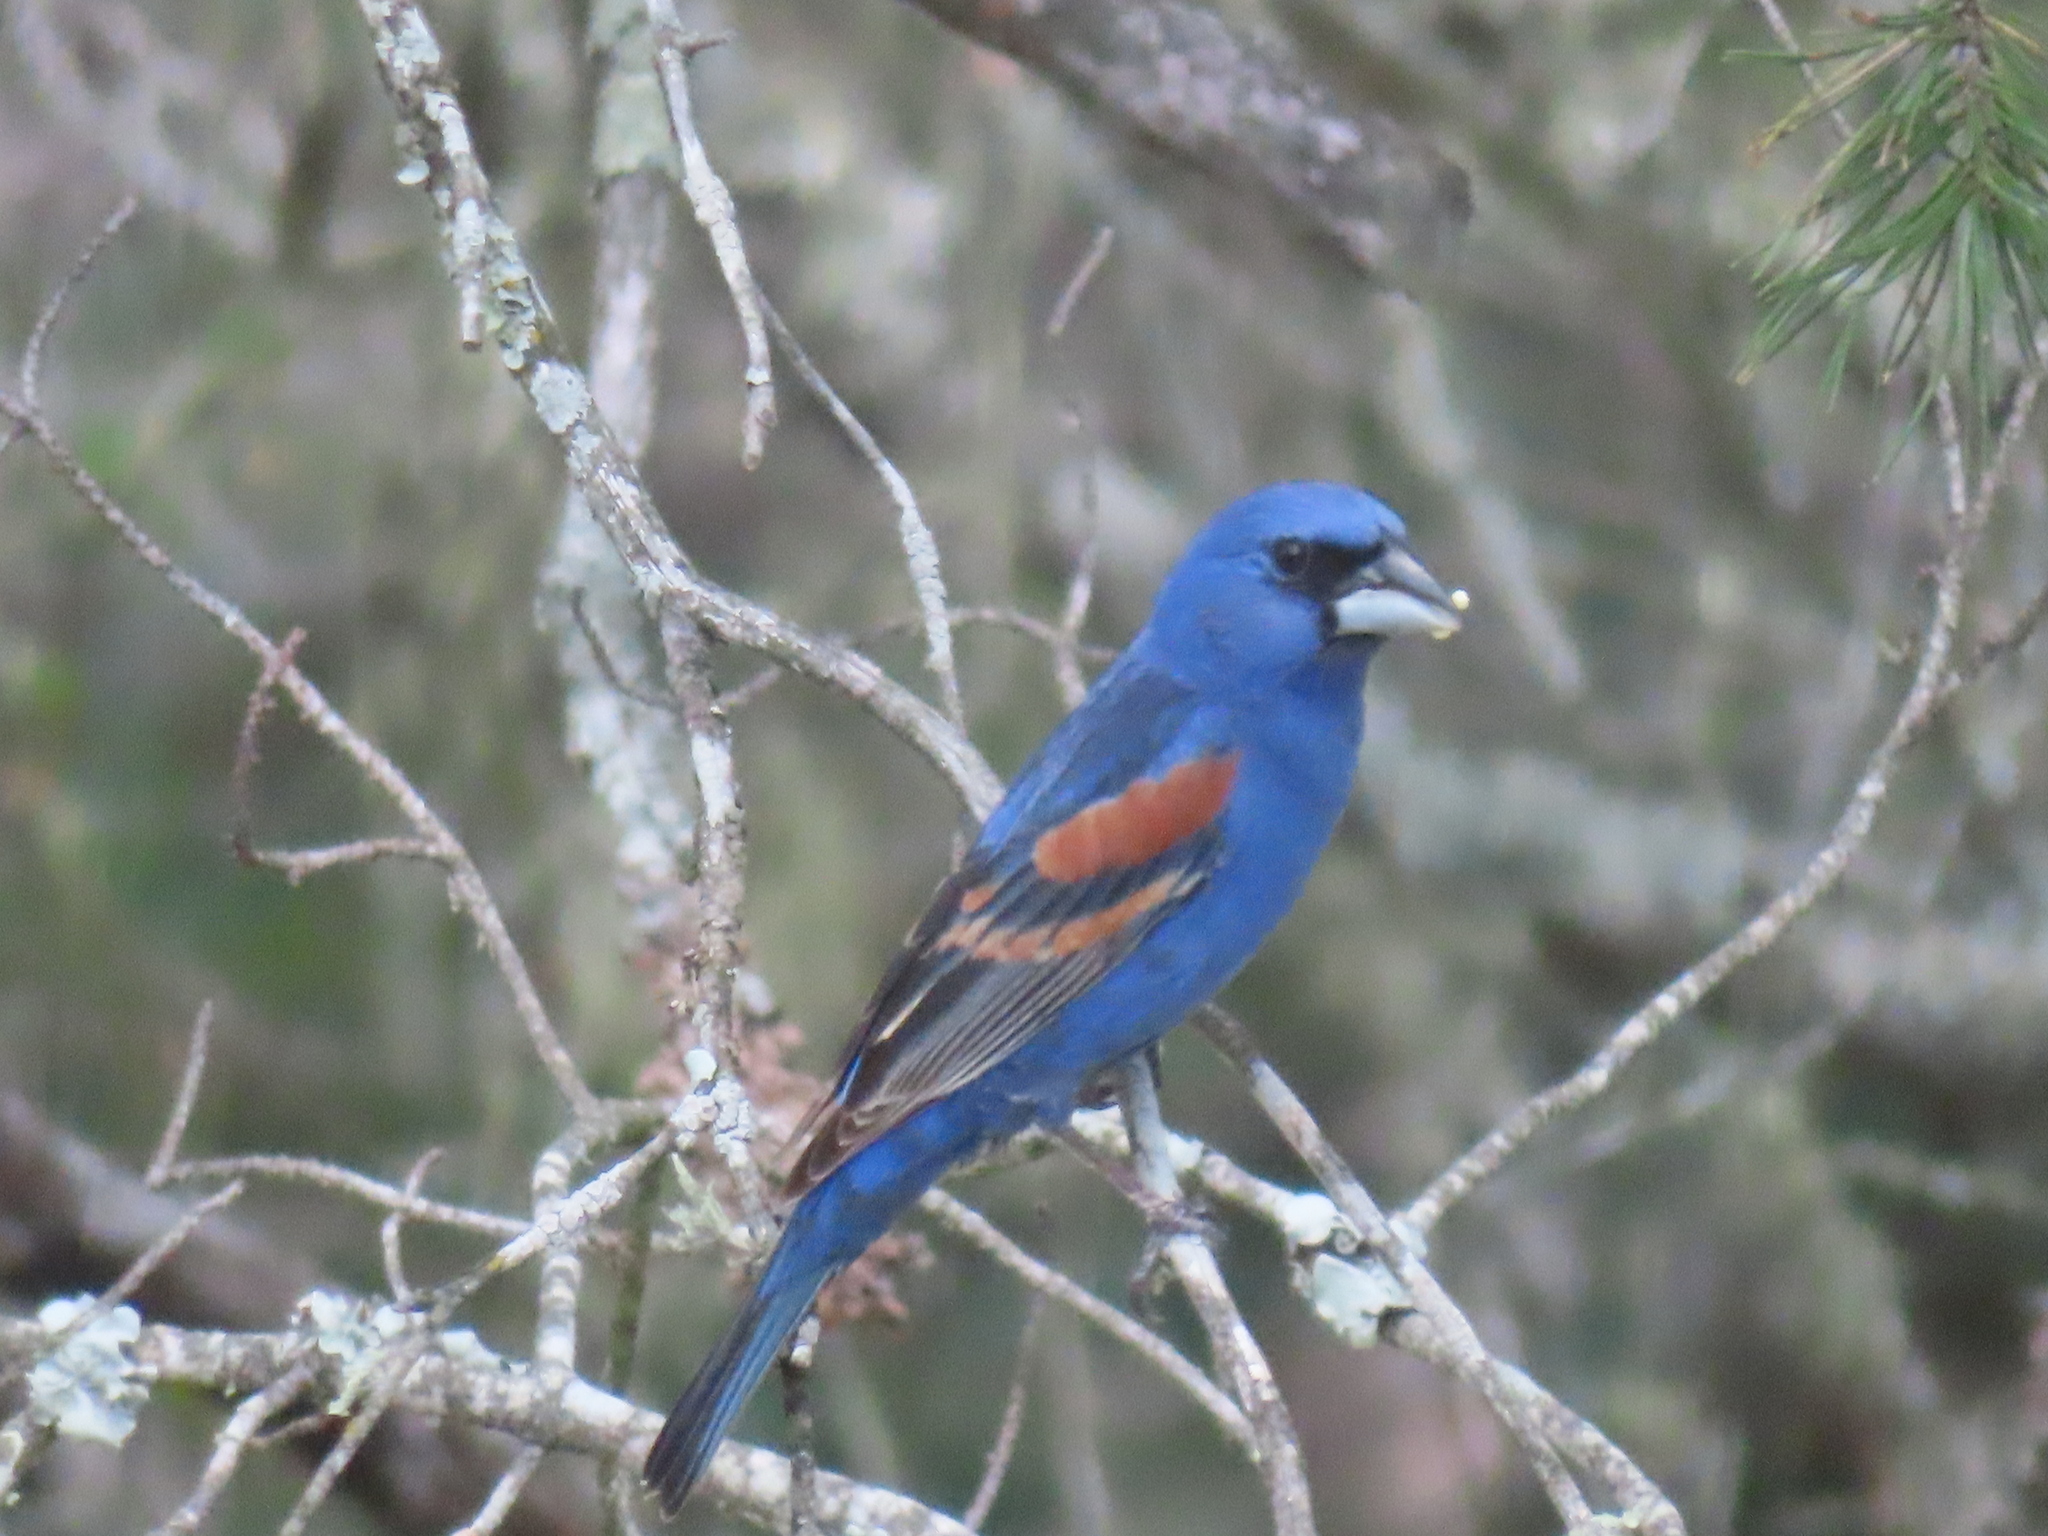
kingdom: Animalia
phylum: Chordata
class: Aves
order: Passeriformes
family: Cardinalidae
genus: Passerina
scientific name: Passerina caerulea
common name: Blue grosbeak
